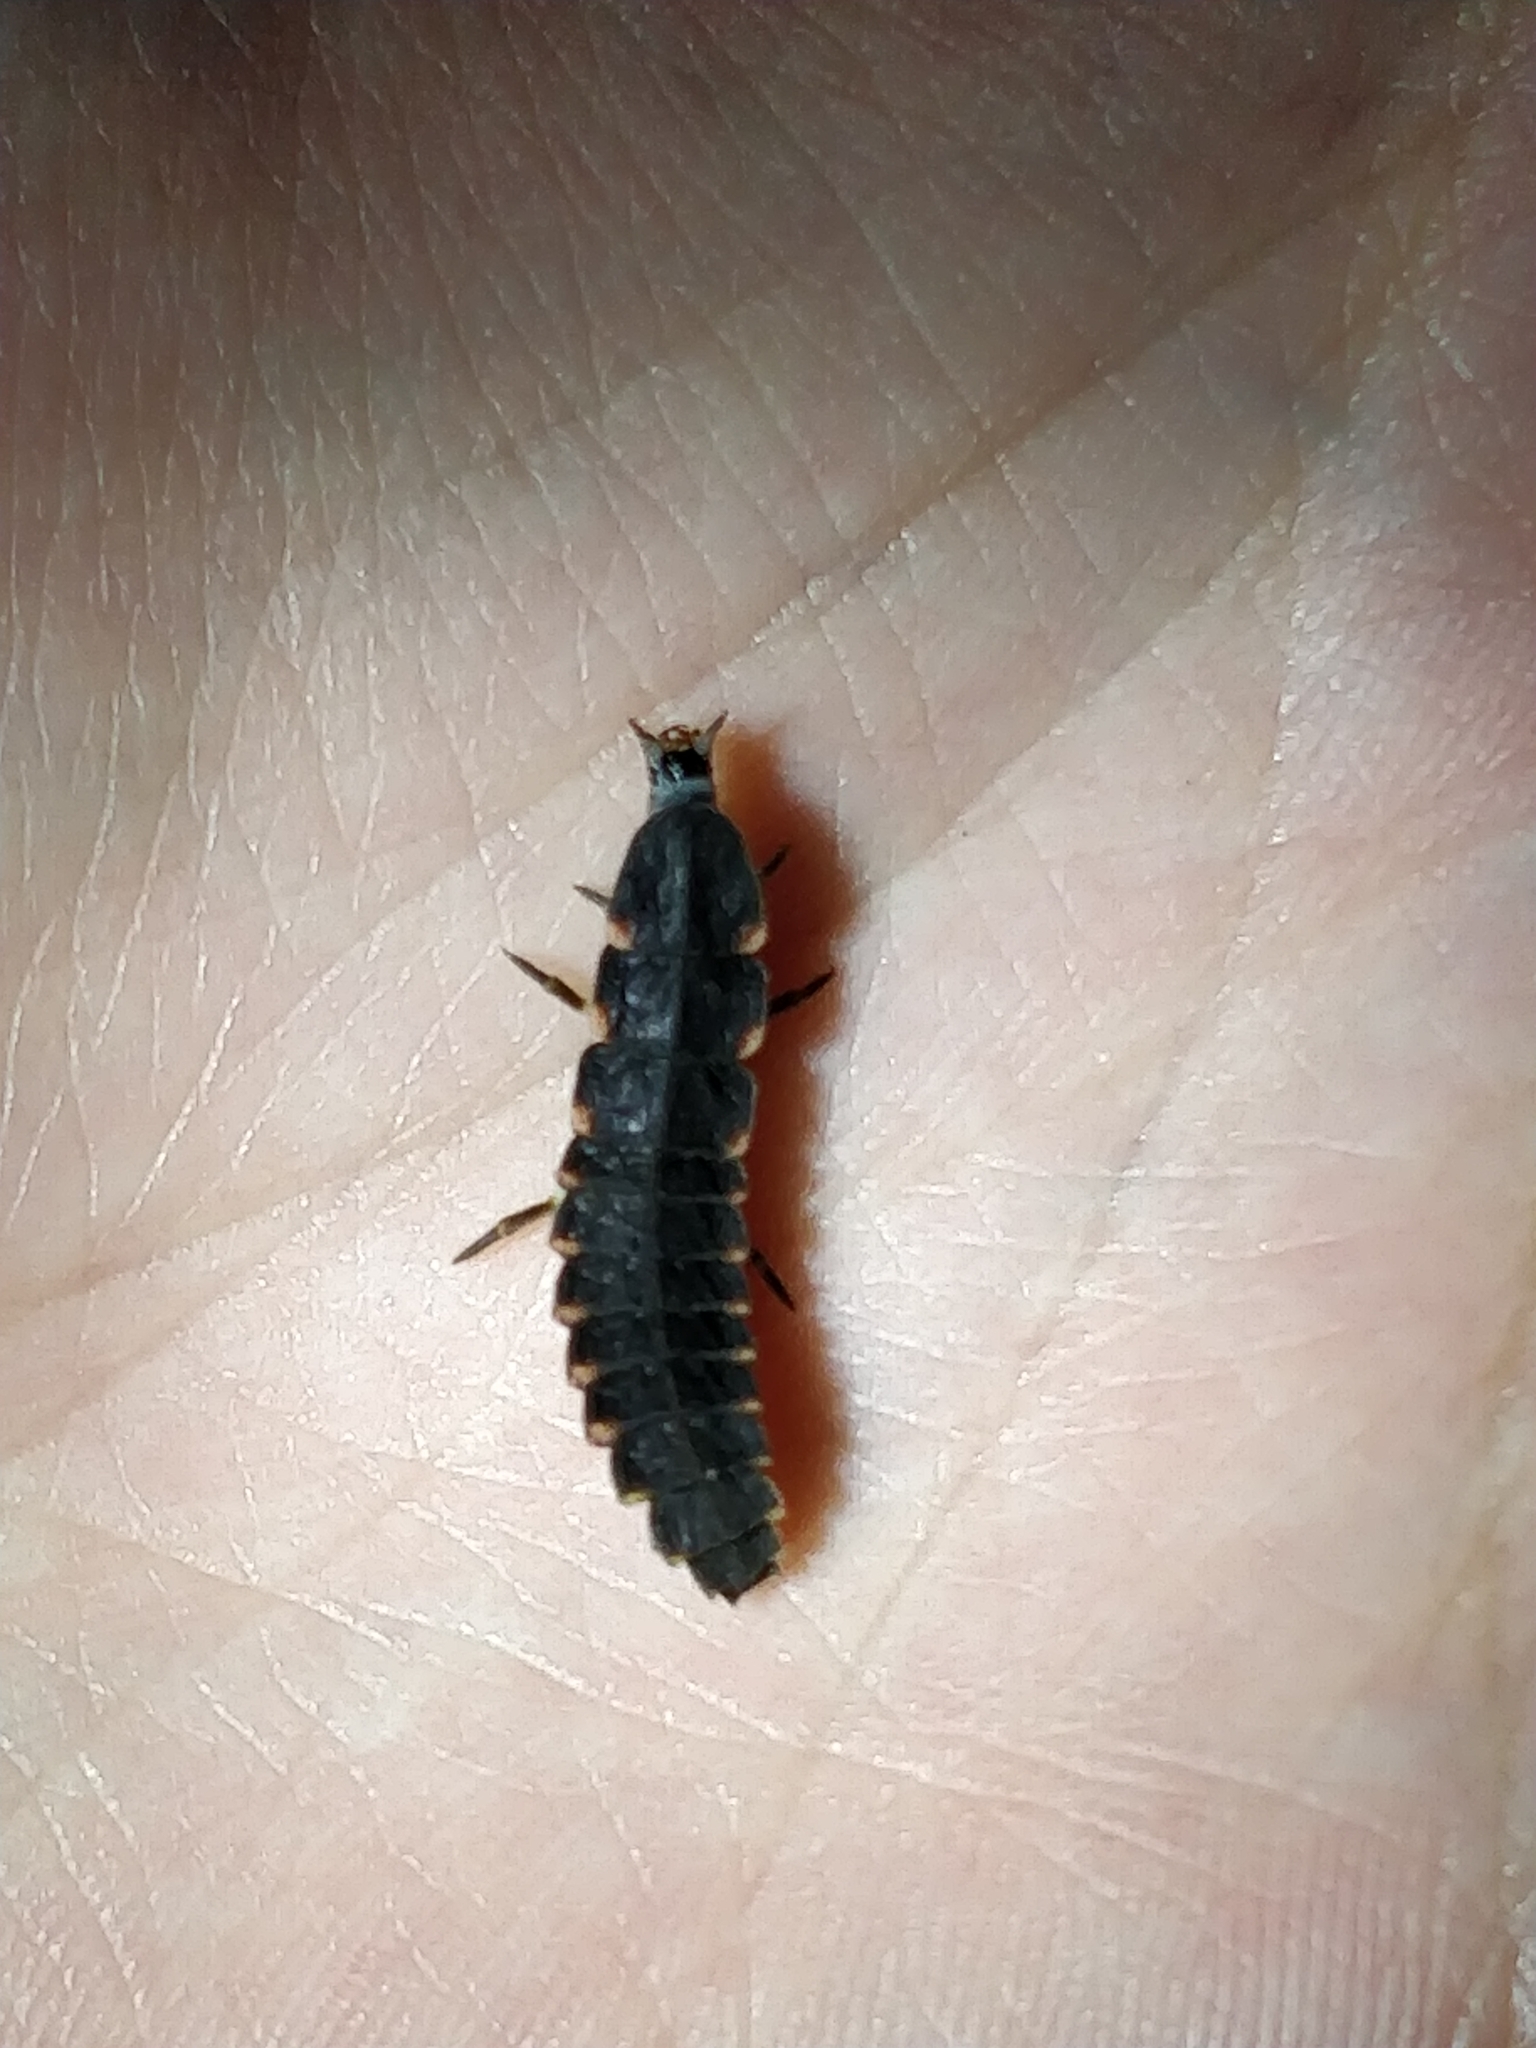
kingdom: Animalia
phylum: Arthropoda
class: Insecta
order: Coleoptera
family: Lampyridae
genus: Lampyris
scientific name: Lampyris noctiluca
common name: Glow-worm
